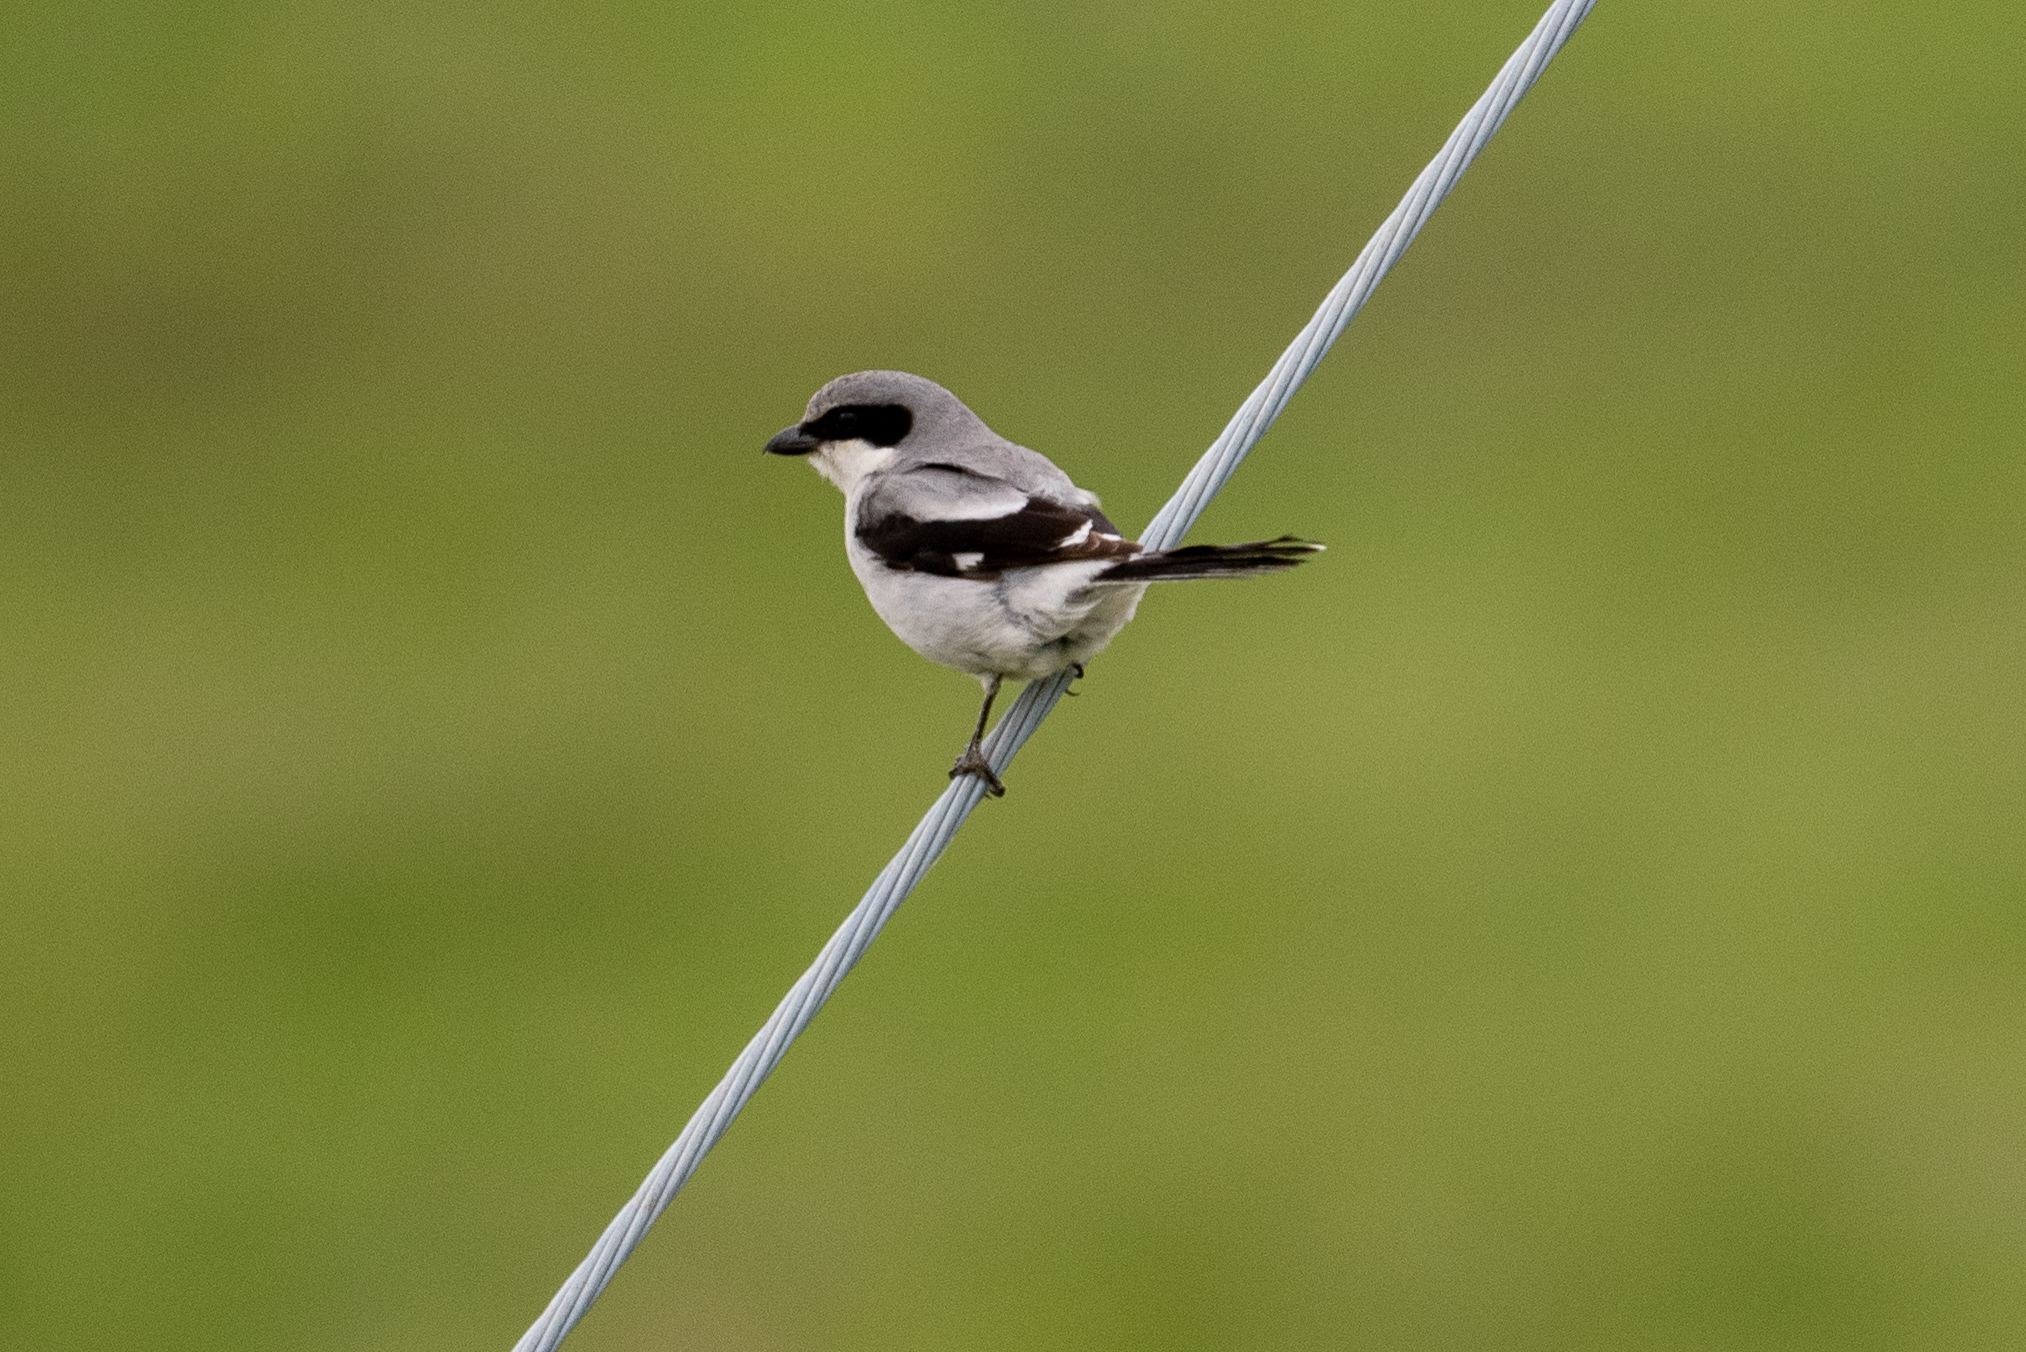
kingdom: Animalia
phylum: Chordata
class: Aves
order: Passeriformes
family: Laniidae
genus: Lanius
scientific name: Lanius ludovicianus
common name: Loggerhead shrike
